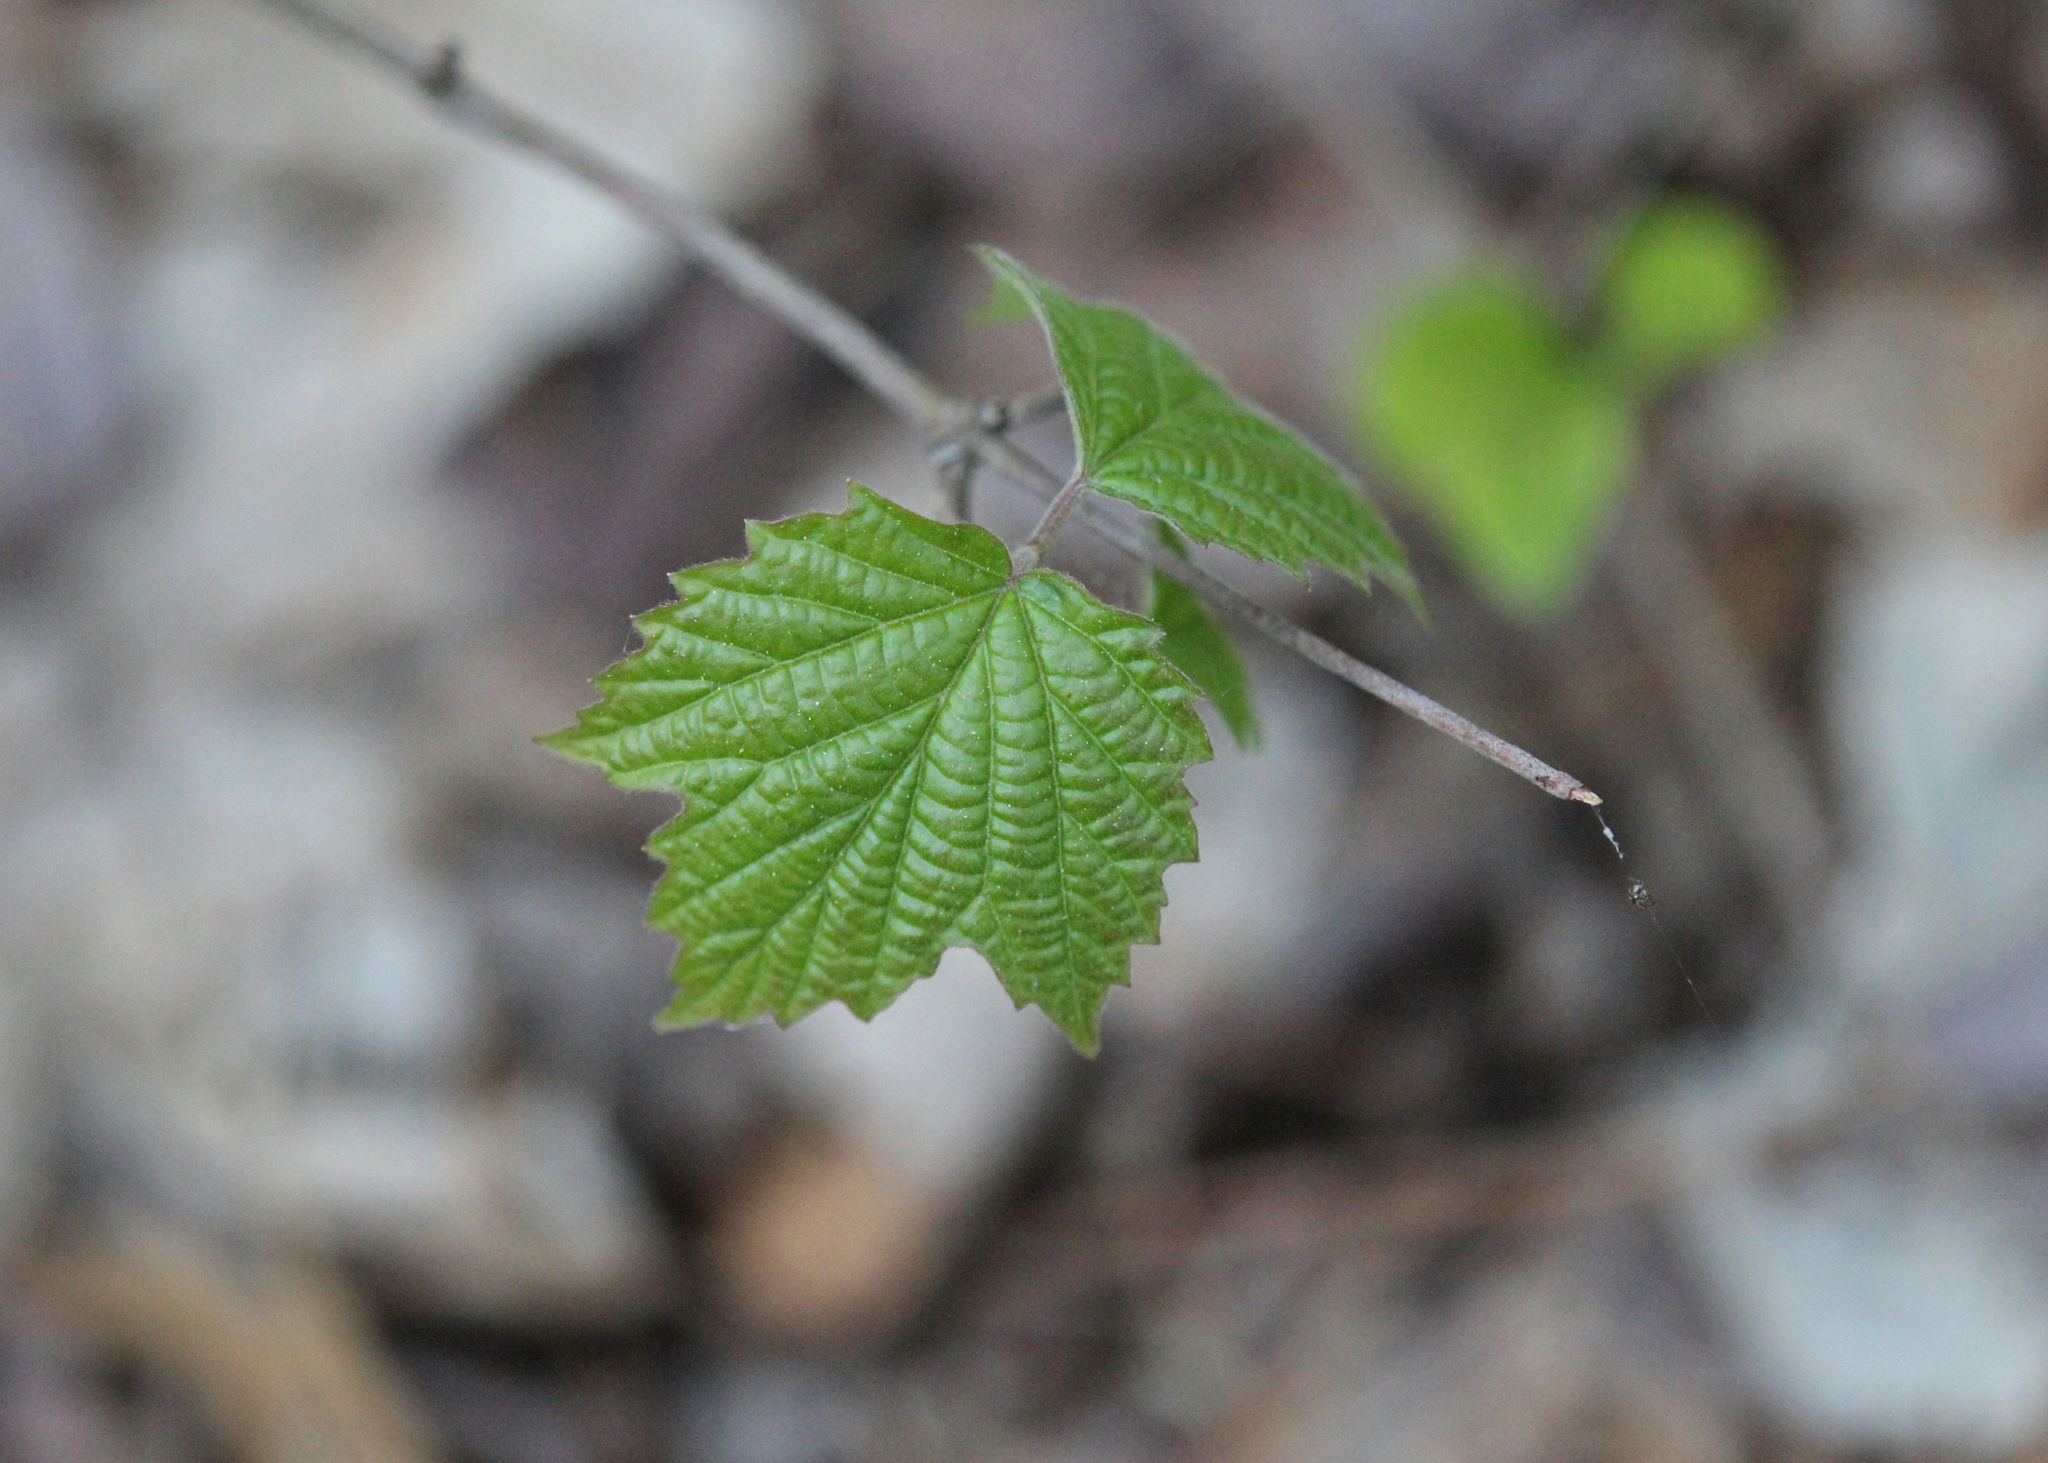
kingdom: Plantae
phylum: Tracheophyta
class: Magnoliopsida
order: Dipsacales
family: Viburnaceae
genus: Viburnum
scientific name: Viburnum acerifolium
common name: Dockmackie
